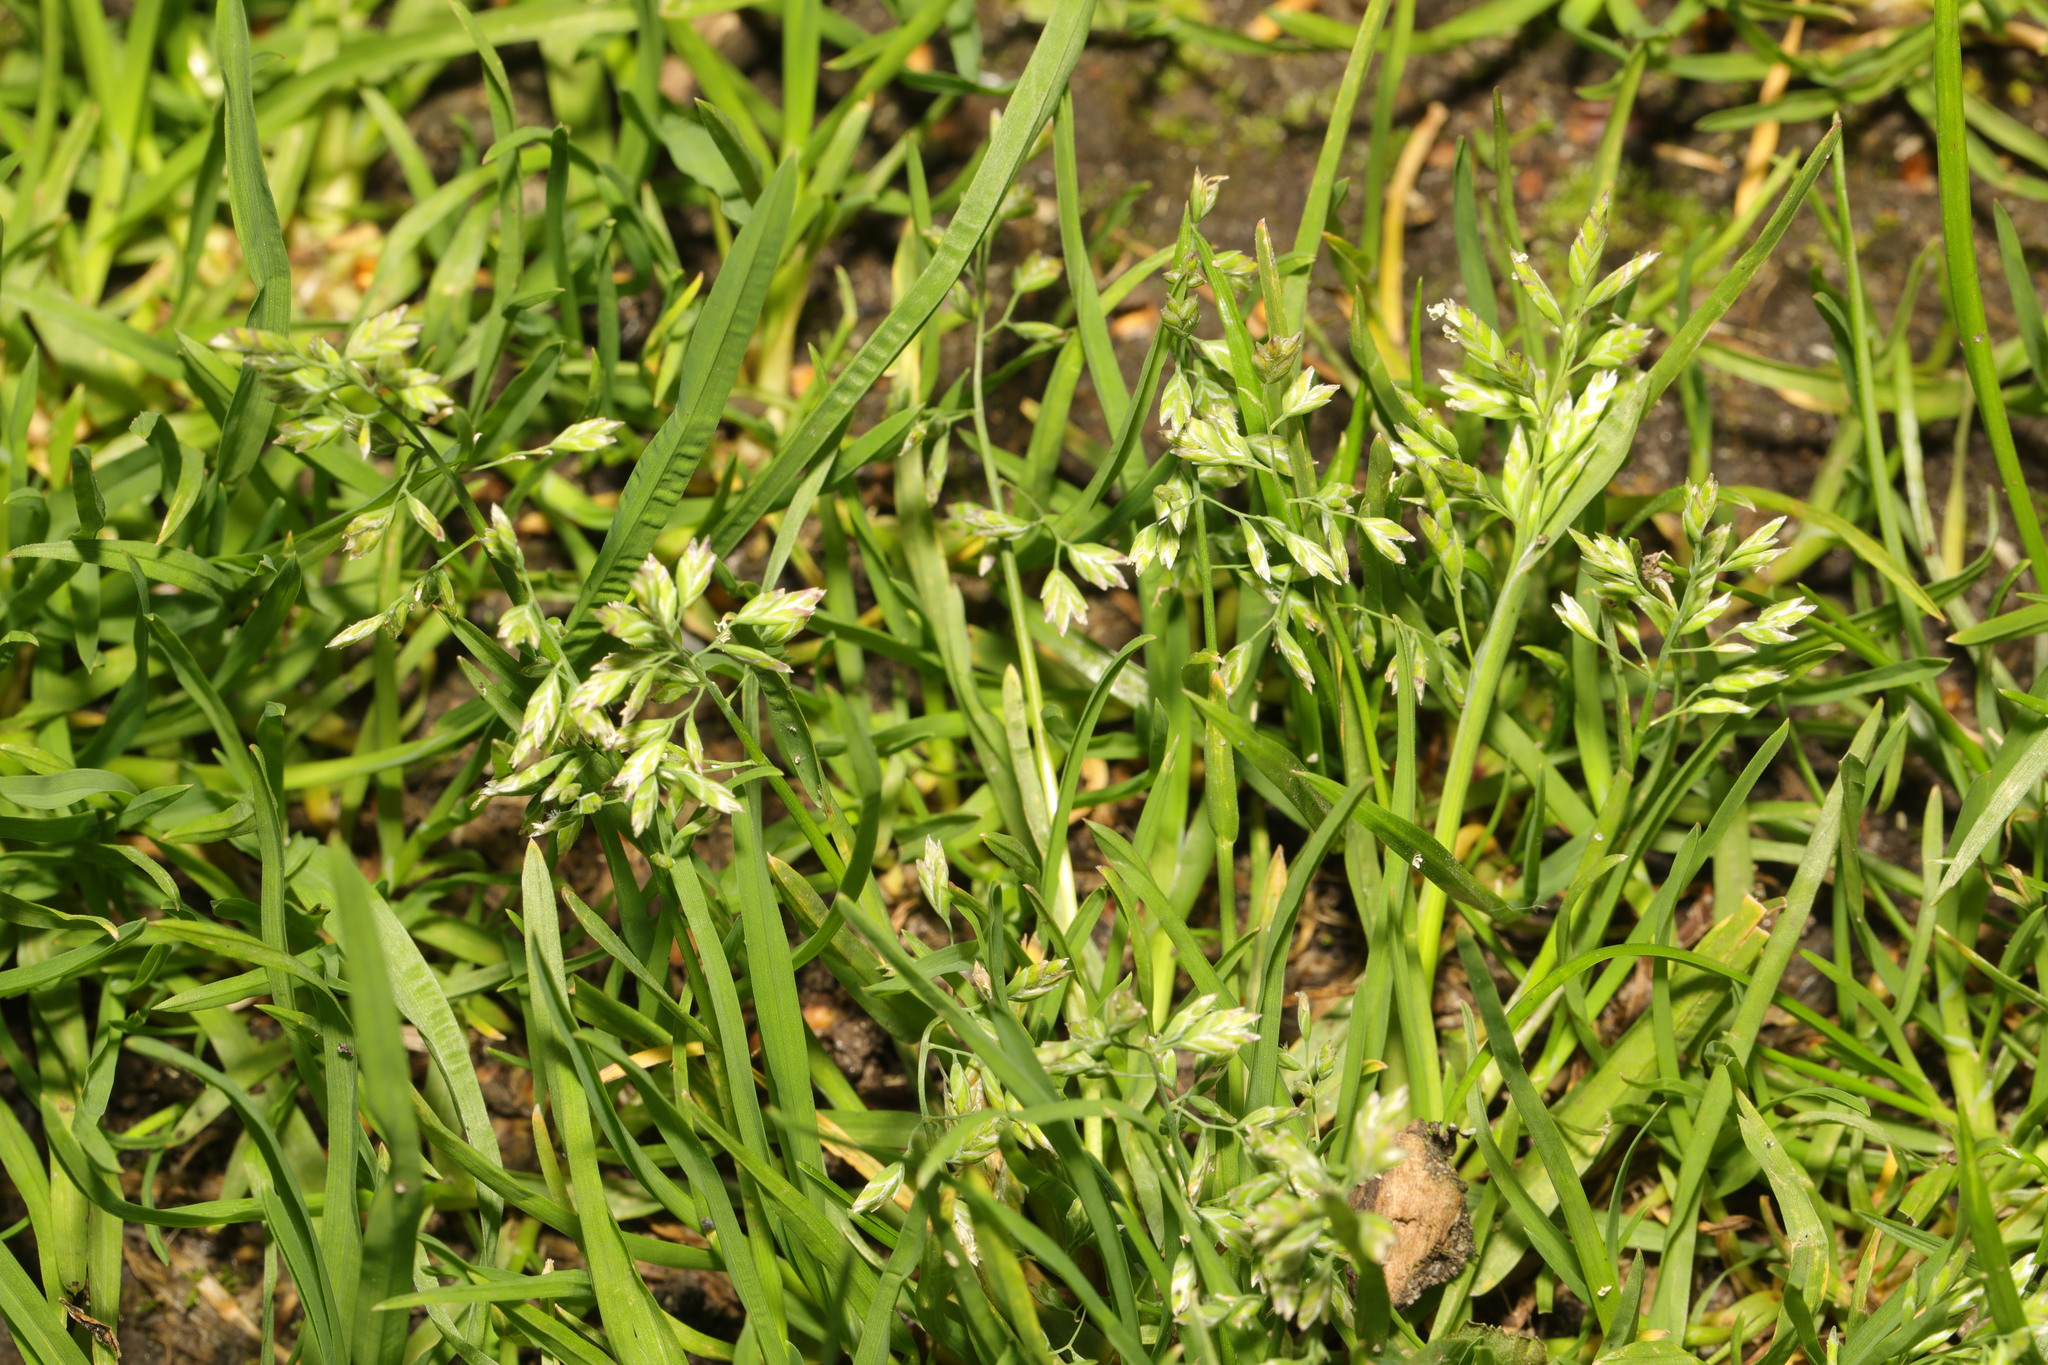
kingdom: Plantae
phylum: Tracheophyta
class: Liliopsida
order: Poales
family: Poaceae
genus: Poa
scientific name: Poa annua
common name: Annual bluegrass
